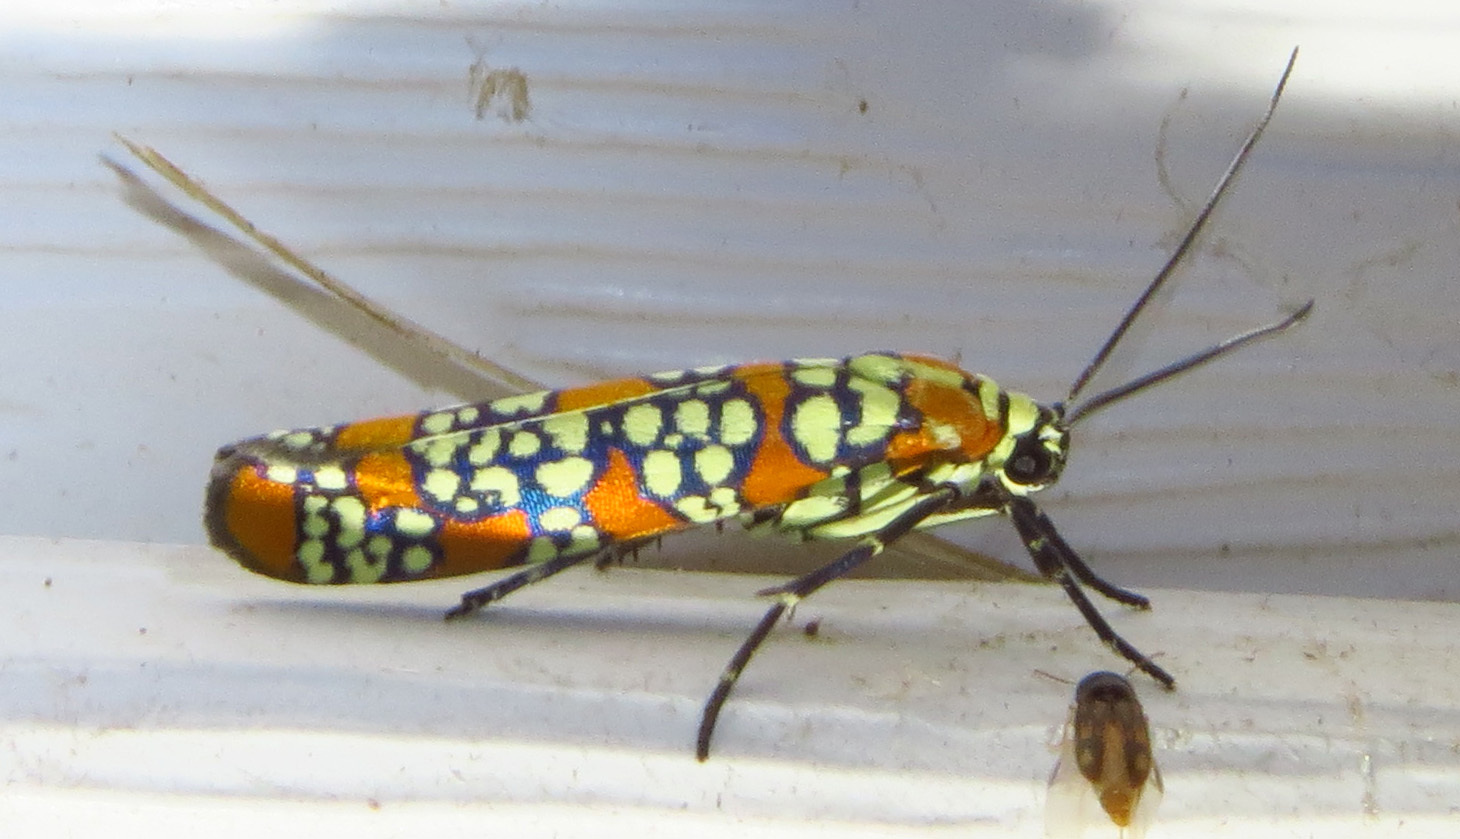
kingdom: Animalia
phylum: Arthropoda
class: Insecta
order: Lepidoptera
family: Attevidae
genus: Atteva
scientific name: Atteva punctella
